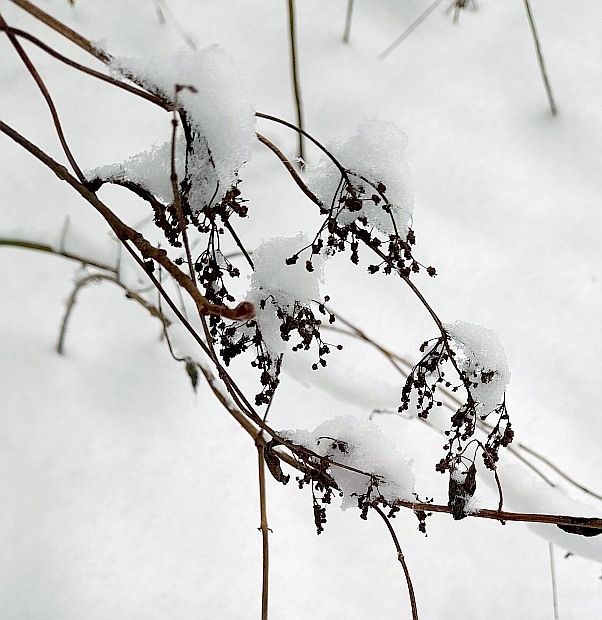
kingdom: Plantae
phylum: Tracheophyta
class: Magnoliopsida
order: Rosales
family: Rosaceae
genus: Filipendula
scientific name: Filipendula ulmaria
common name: Meadowsweet
